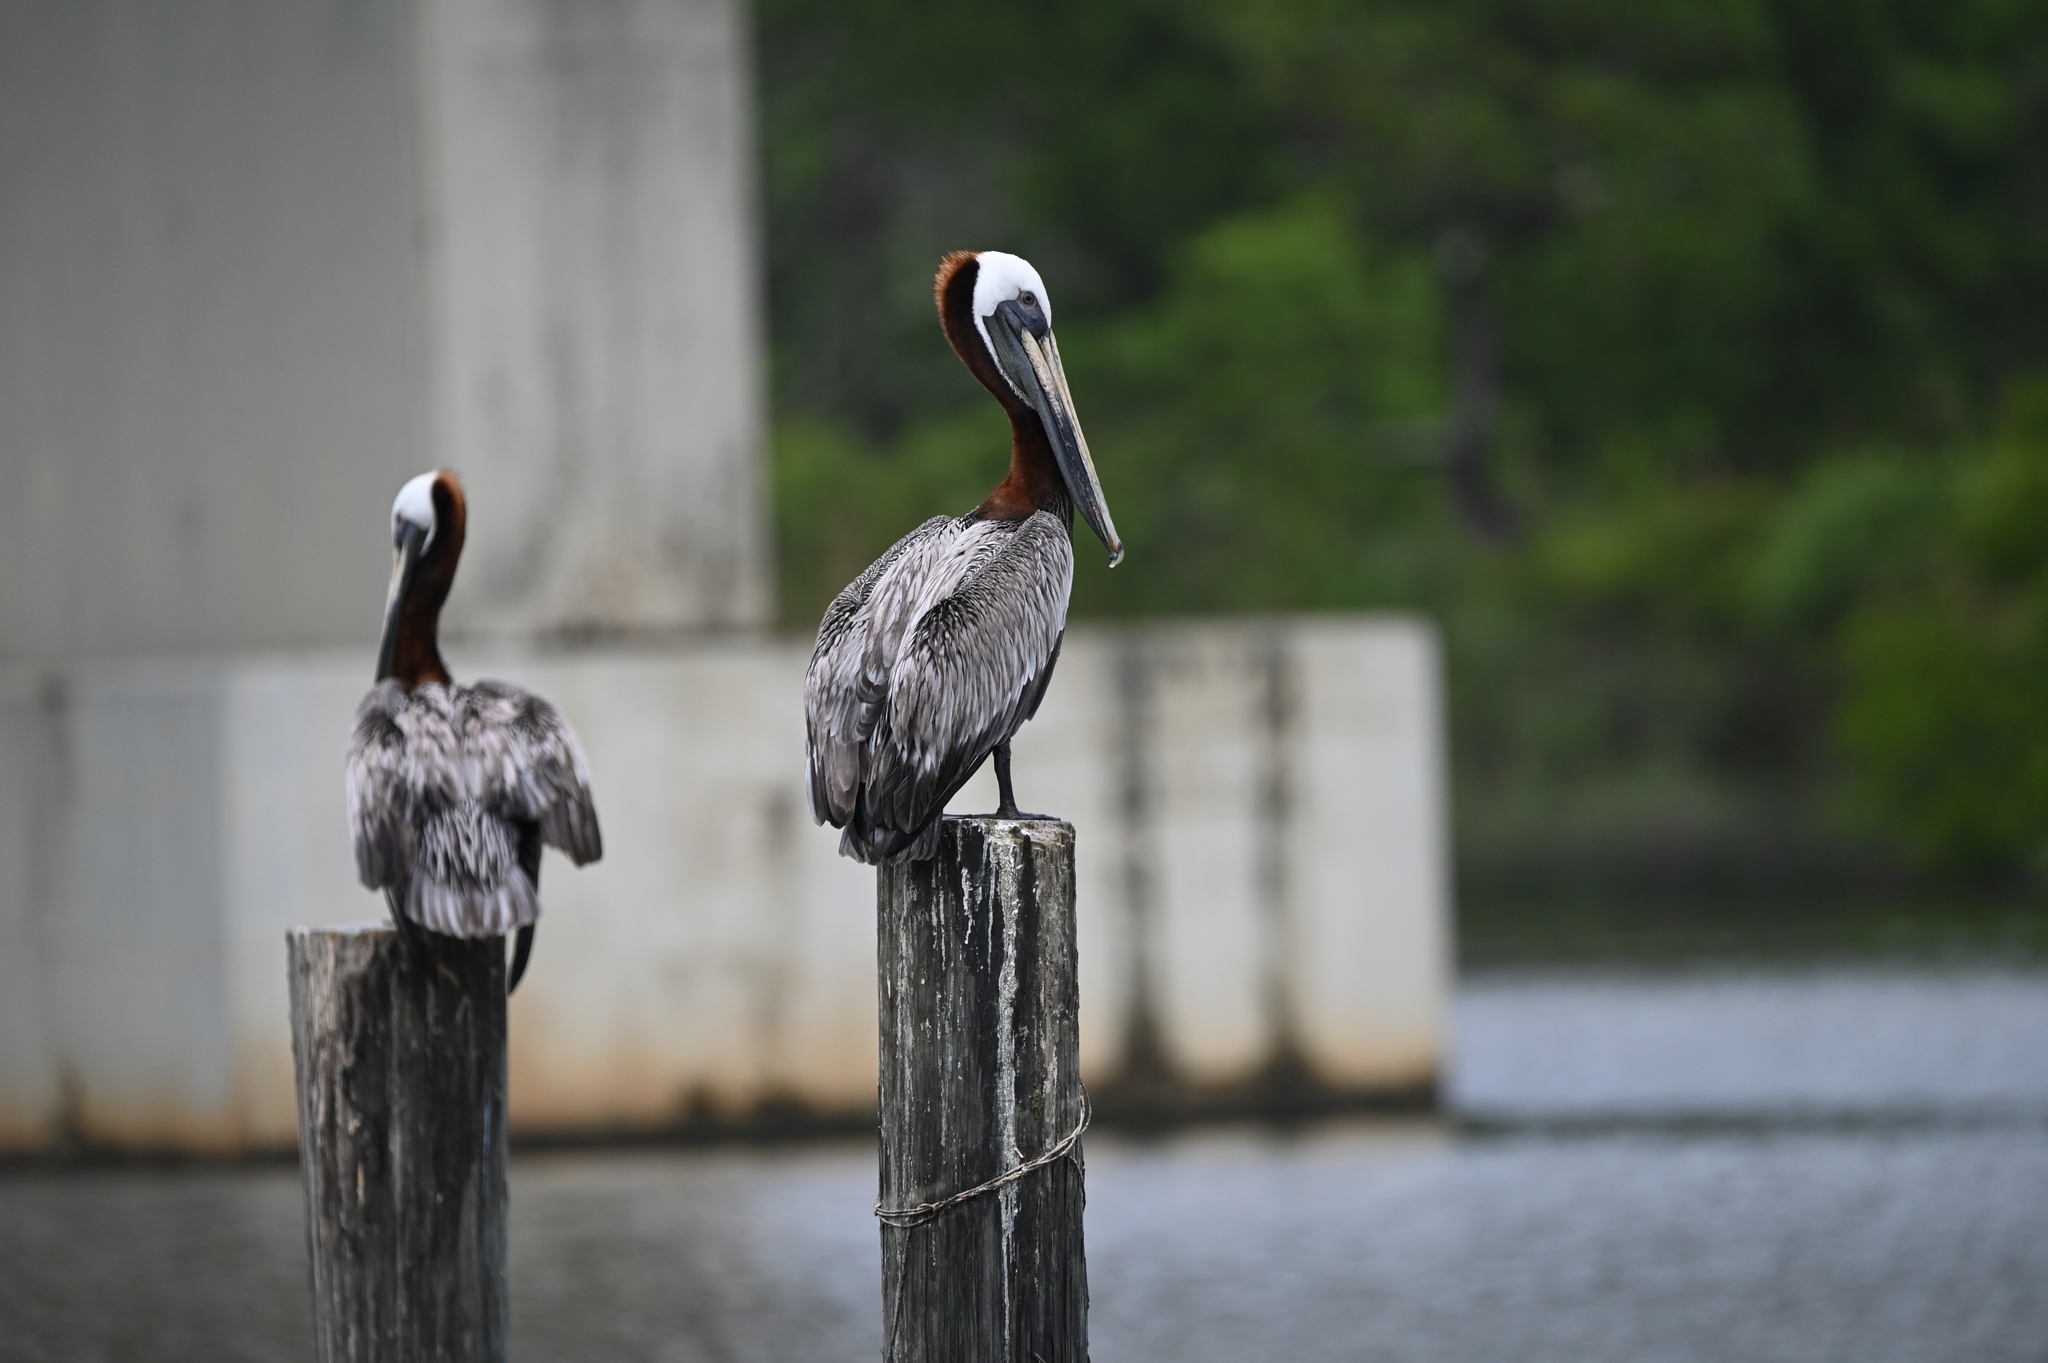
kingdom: Animalia
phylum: Chordata
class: Aves
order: Pelecaniformes
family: Pelecanidae
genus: Pelecanus
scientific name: Pelecanus occidentalis
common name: Brown pelican
